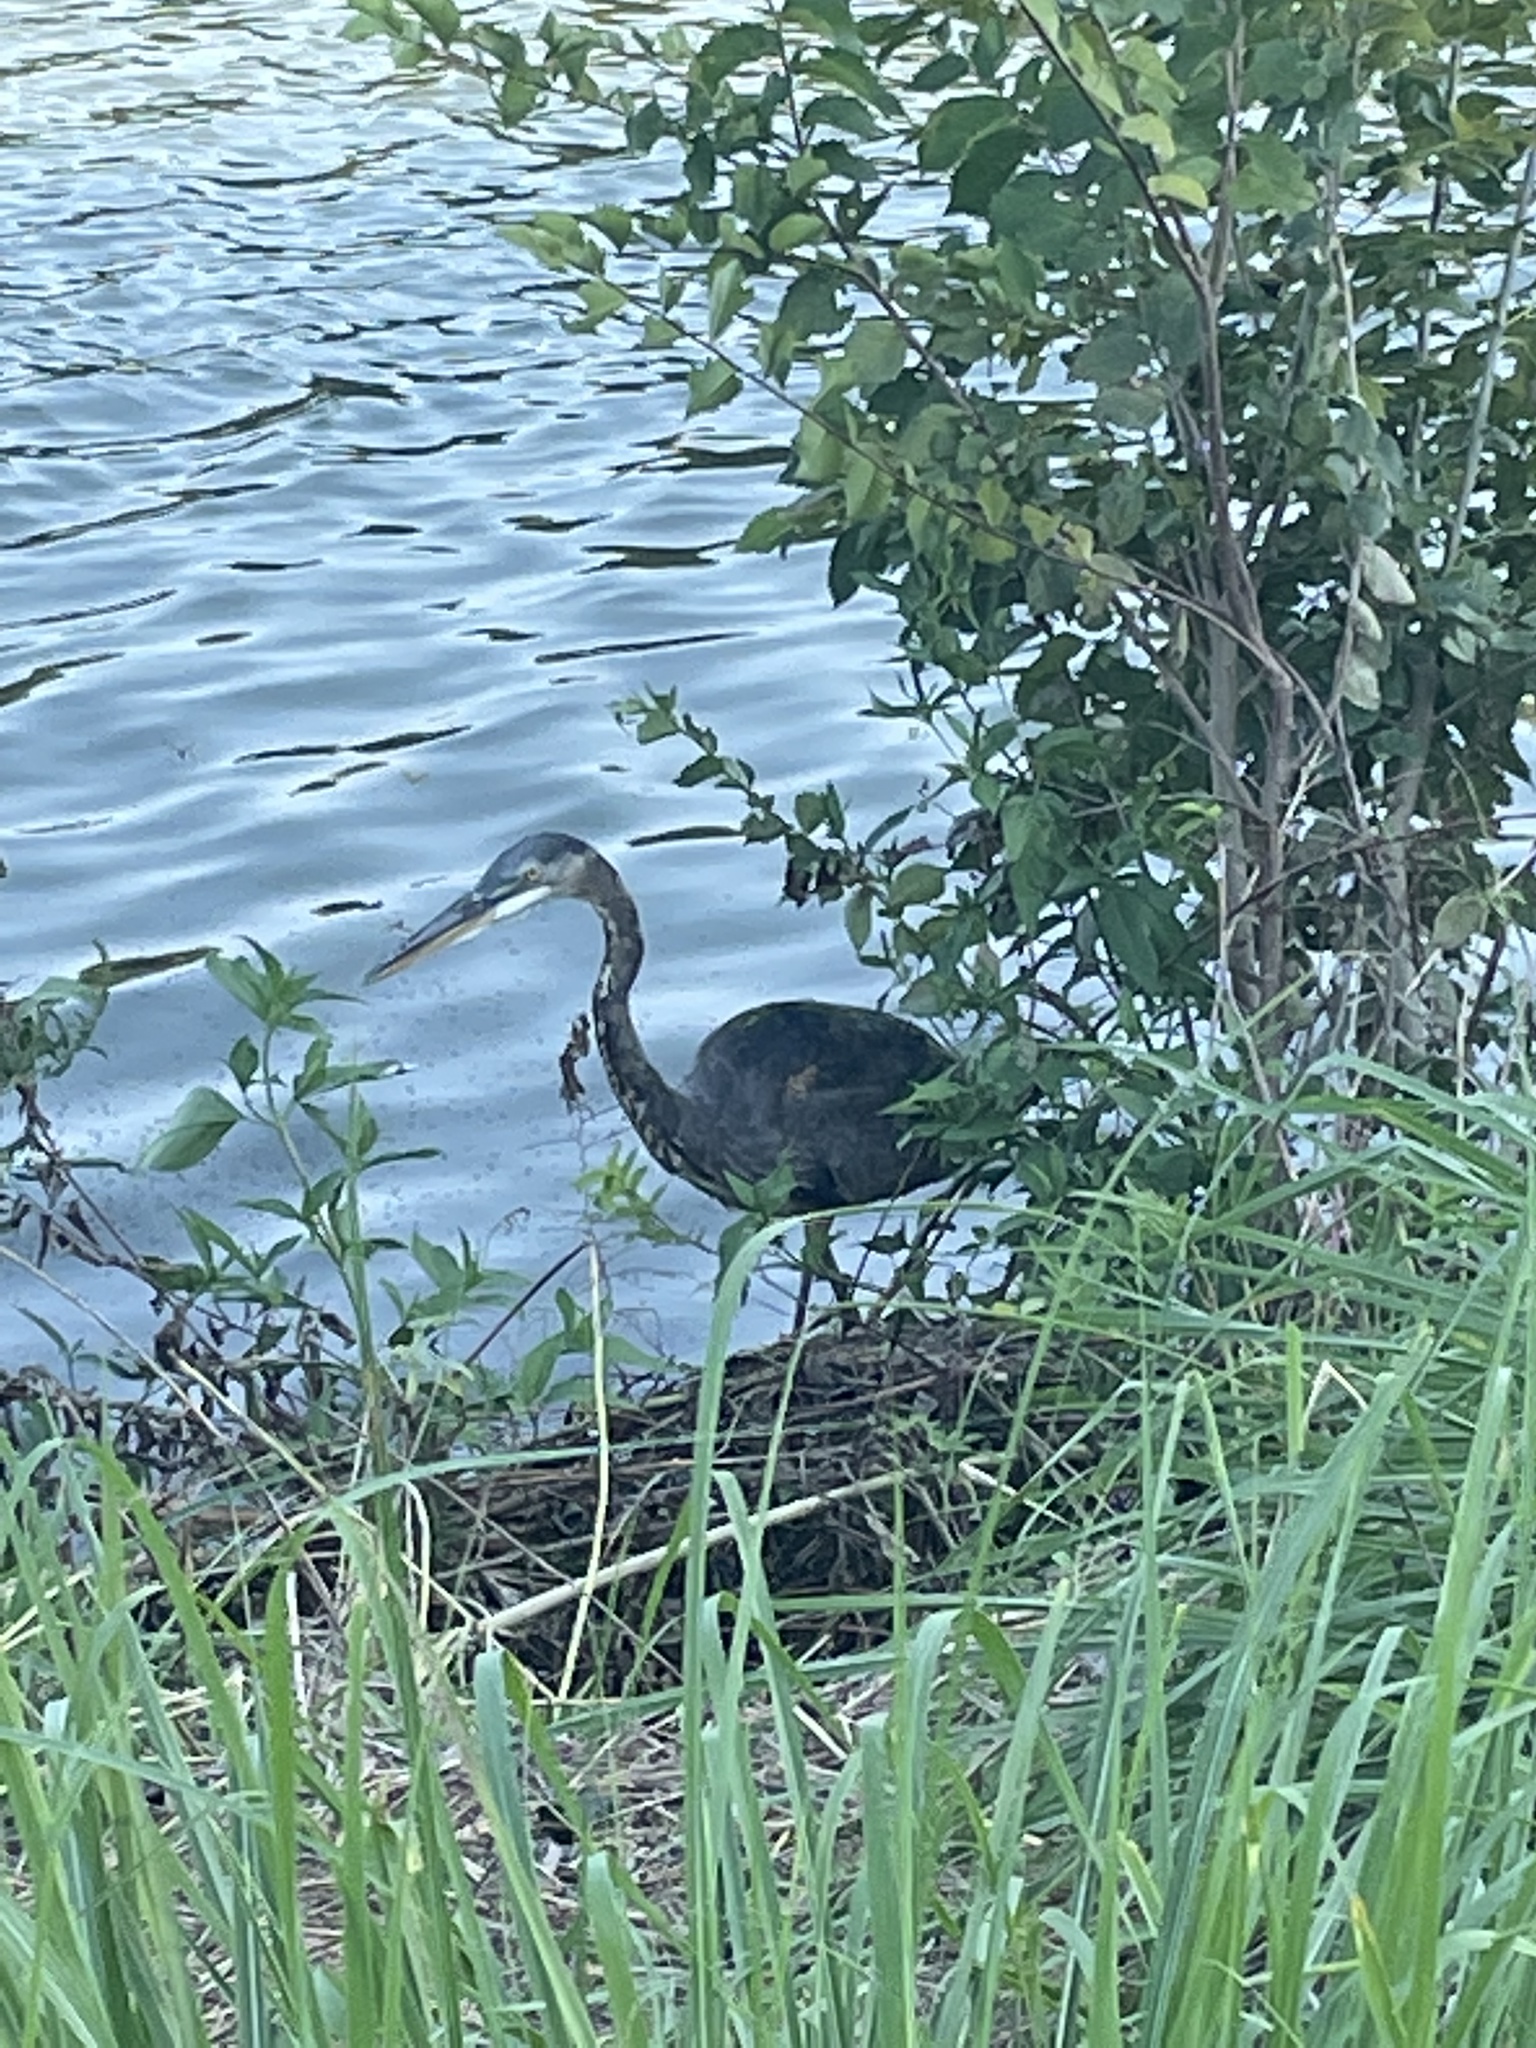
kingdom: Animalia
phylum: Chordata
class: Aves
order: Pelecaniformes
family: Ardeidae
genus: Ardea
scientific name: Ardea herodias
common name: Great blue heron
